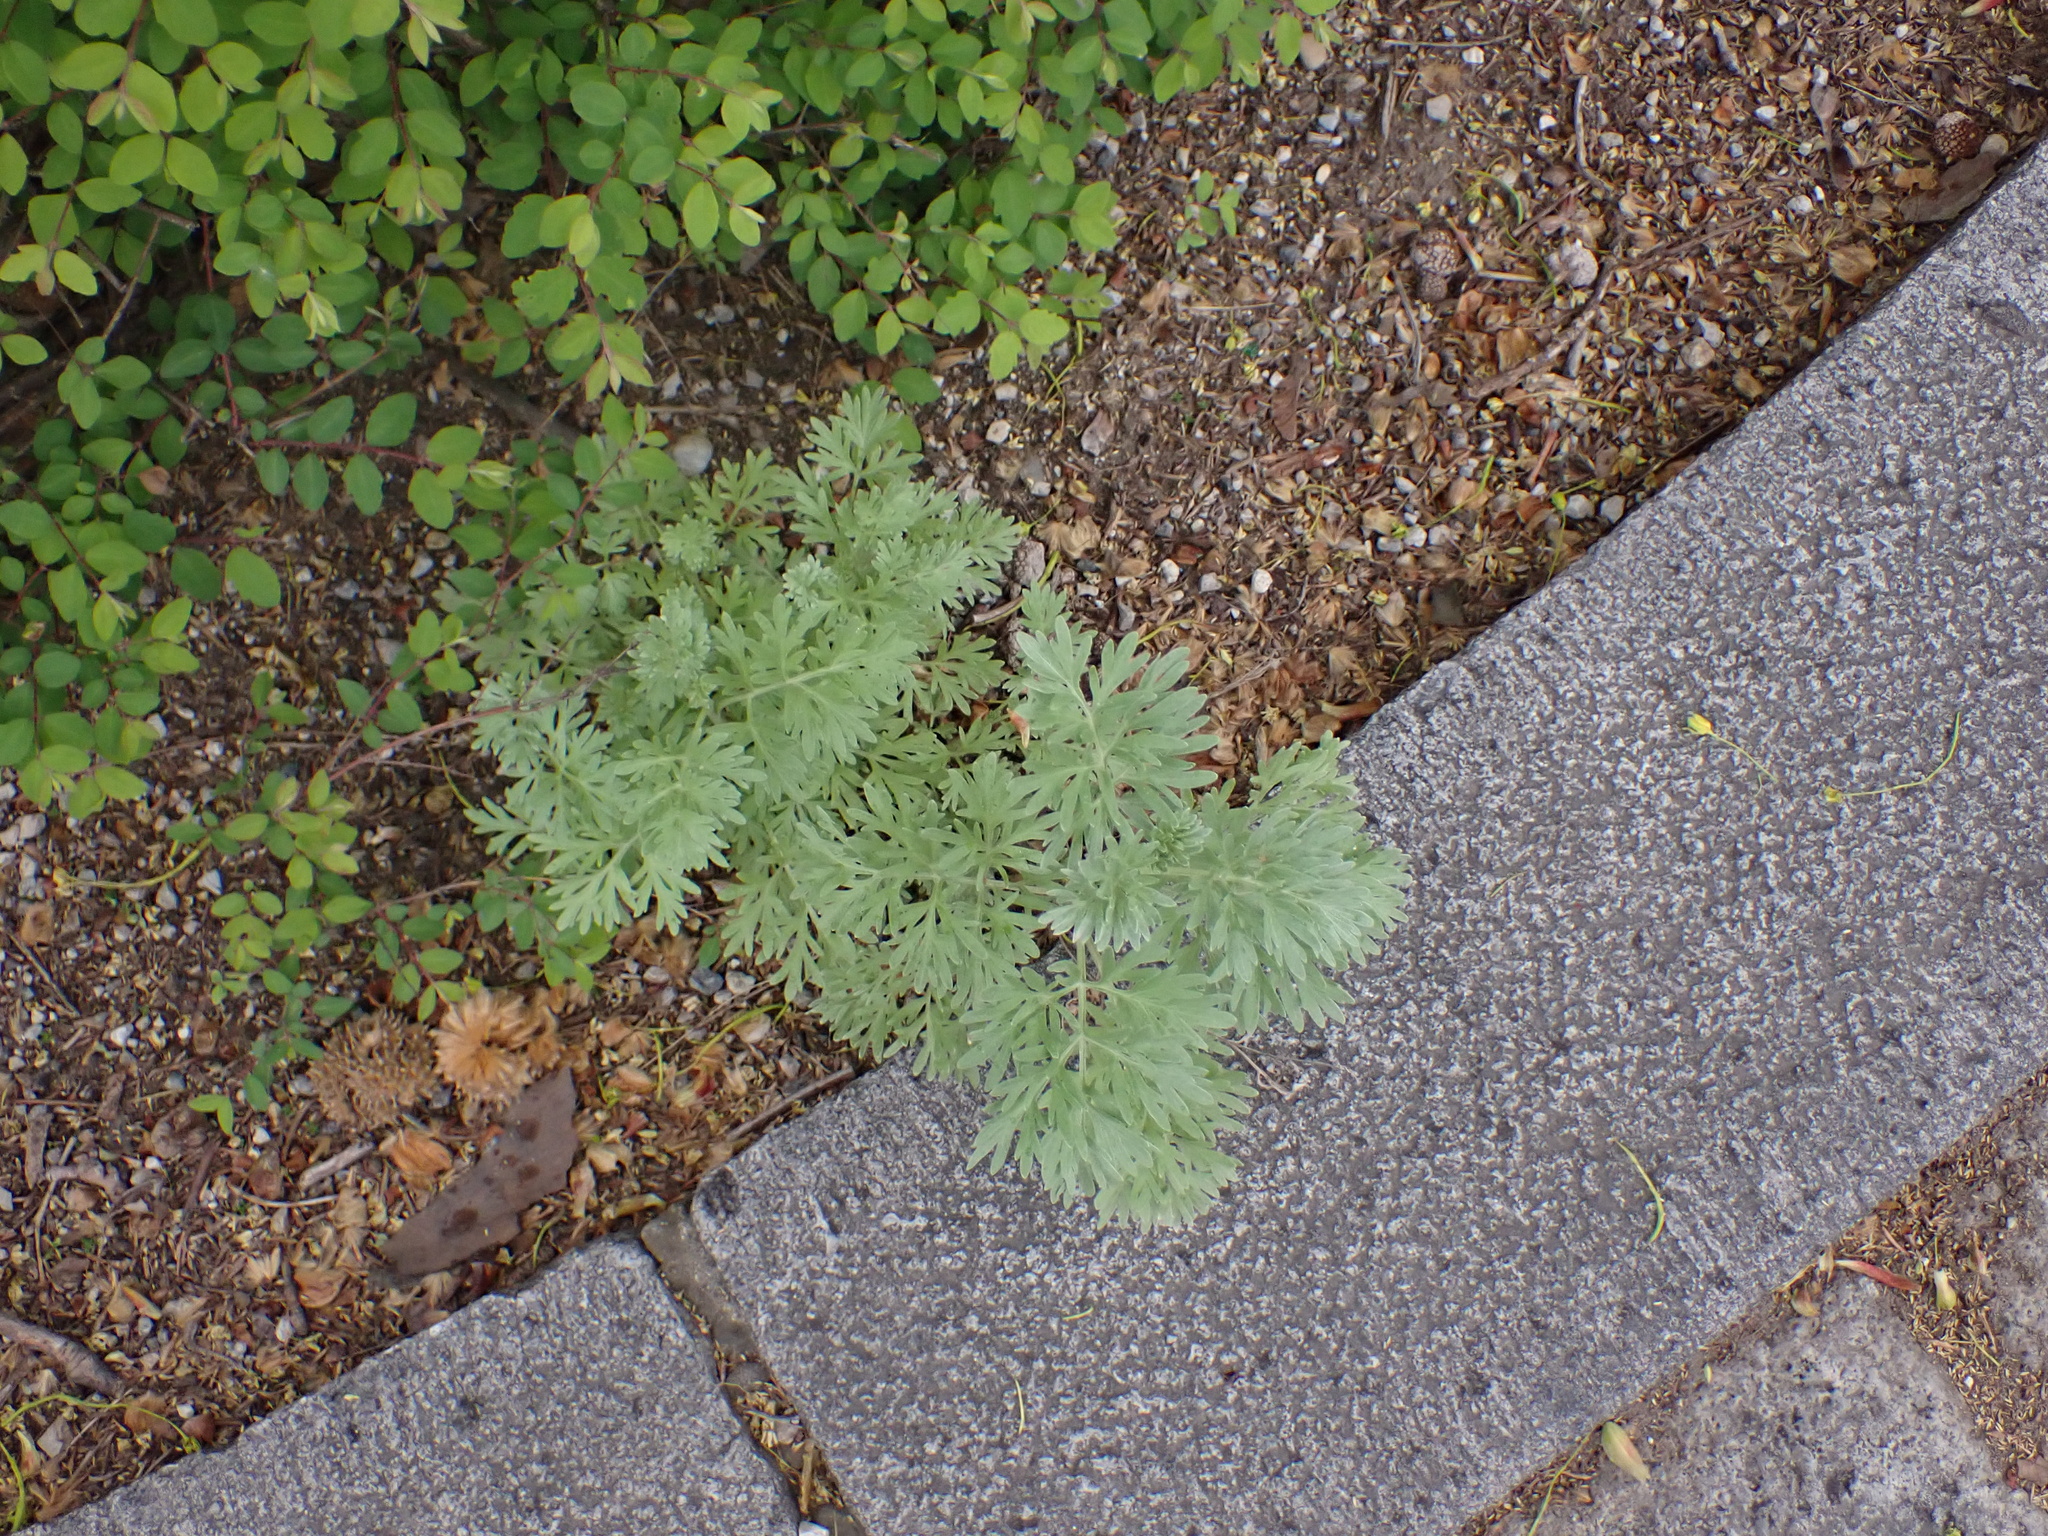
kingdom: Plantae
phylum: Tracheophyta
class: Magnoliopsida
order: Asterales
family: Asteraceae
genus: Artemisia
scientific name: Artemisia absinthium
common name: Wormwood
